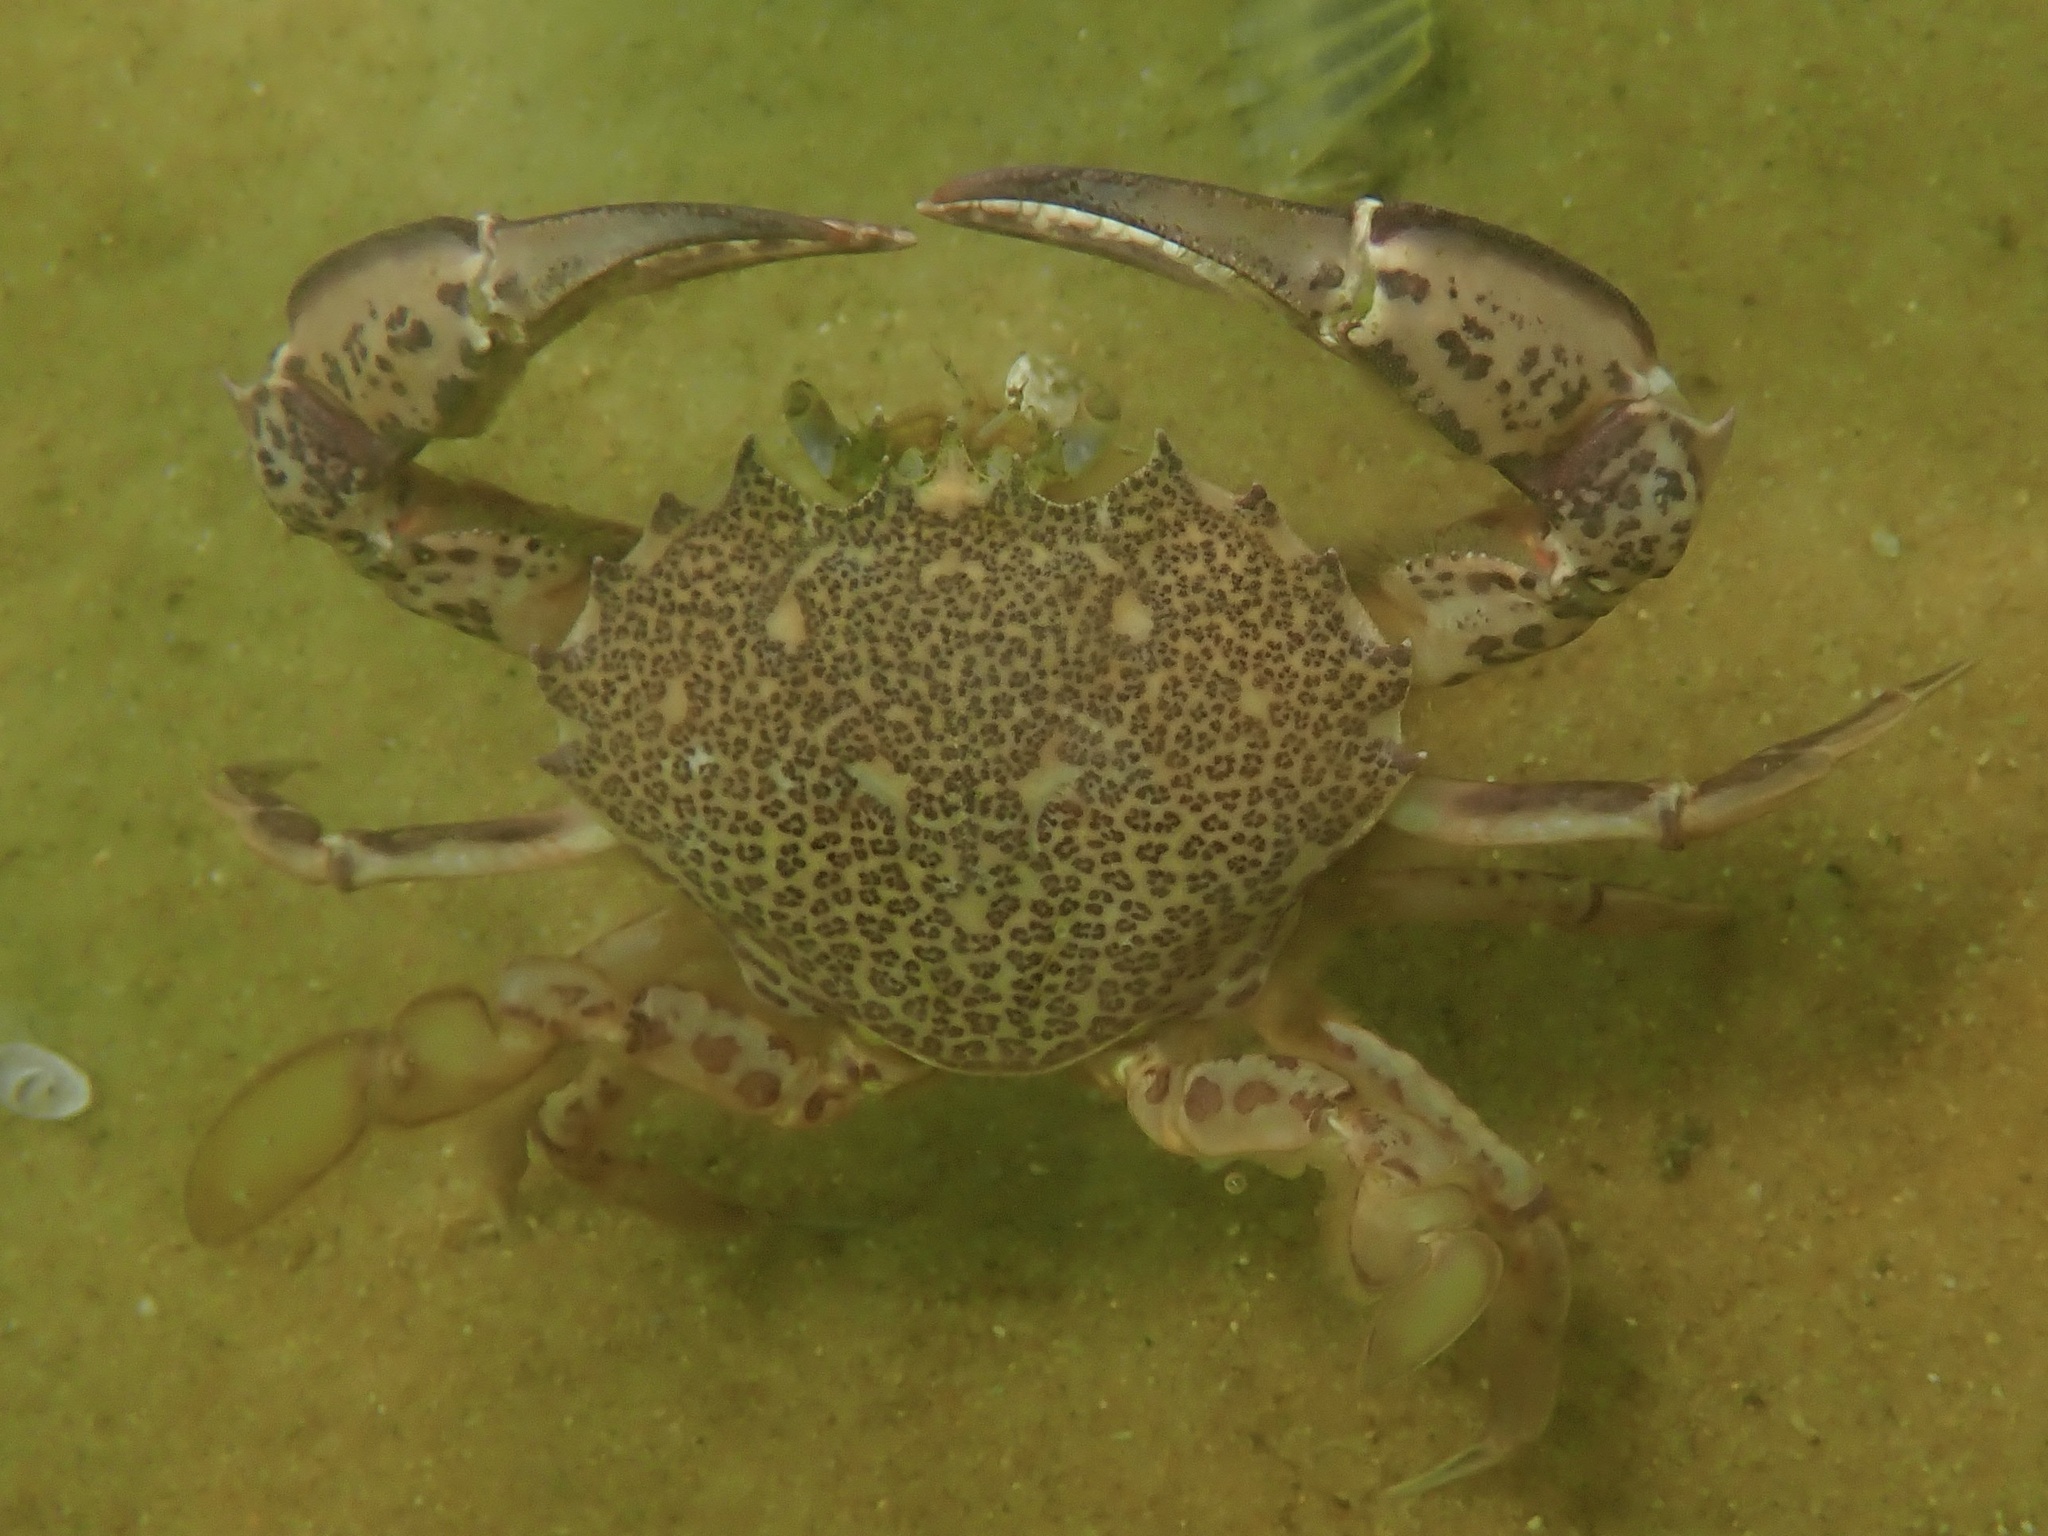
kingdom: Animalia
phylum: Arthropoda
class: Malacostraca
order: Decapoda
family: Ovalipidae
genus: Ovalipes
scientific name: Ovalipes ocellatus
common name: Lady crab
